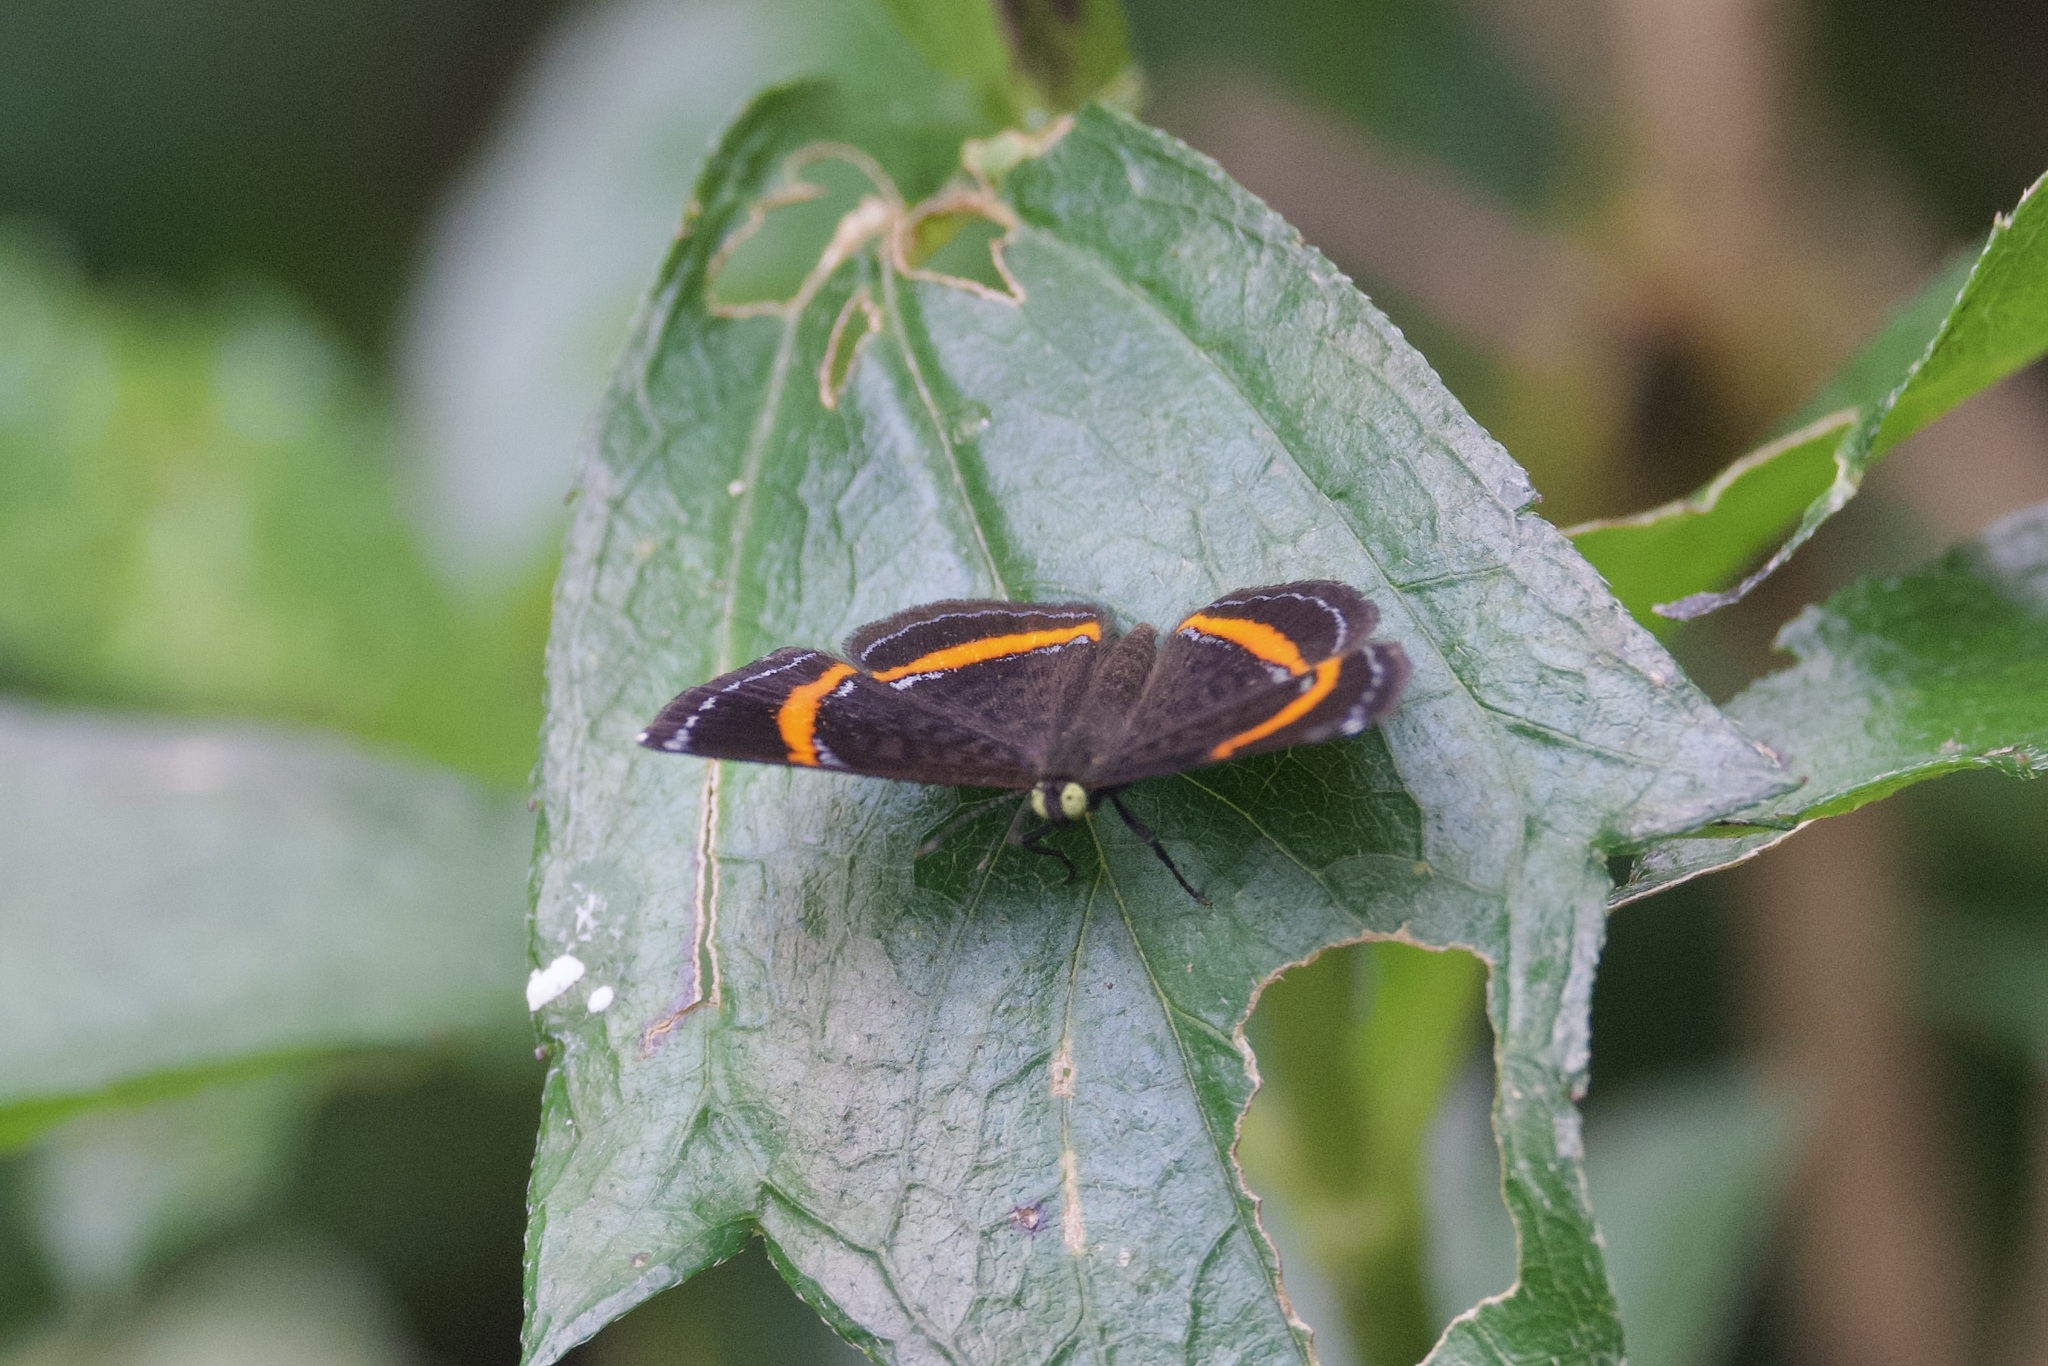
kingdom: Animalia
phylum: Arthropoda
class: Insecta
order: Lepidoptera
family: Riodinidae
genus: Crocozona
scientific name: Crocozona coecias
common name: Orange-banded gem
